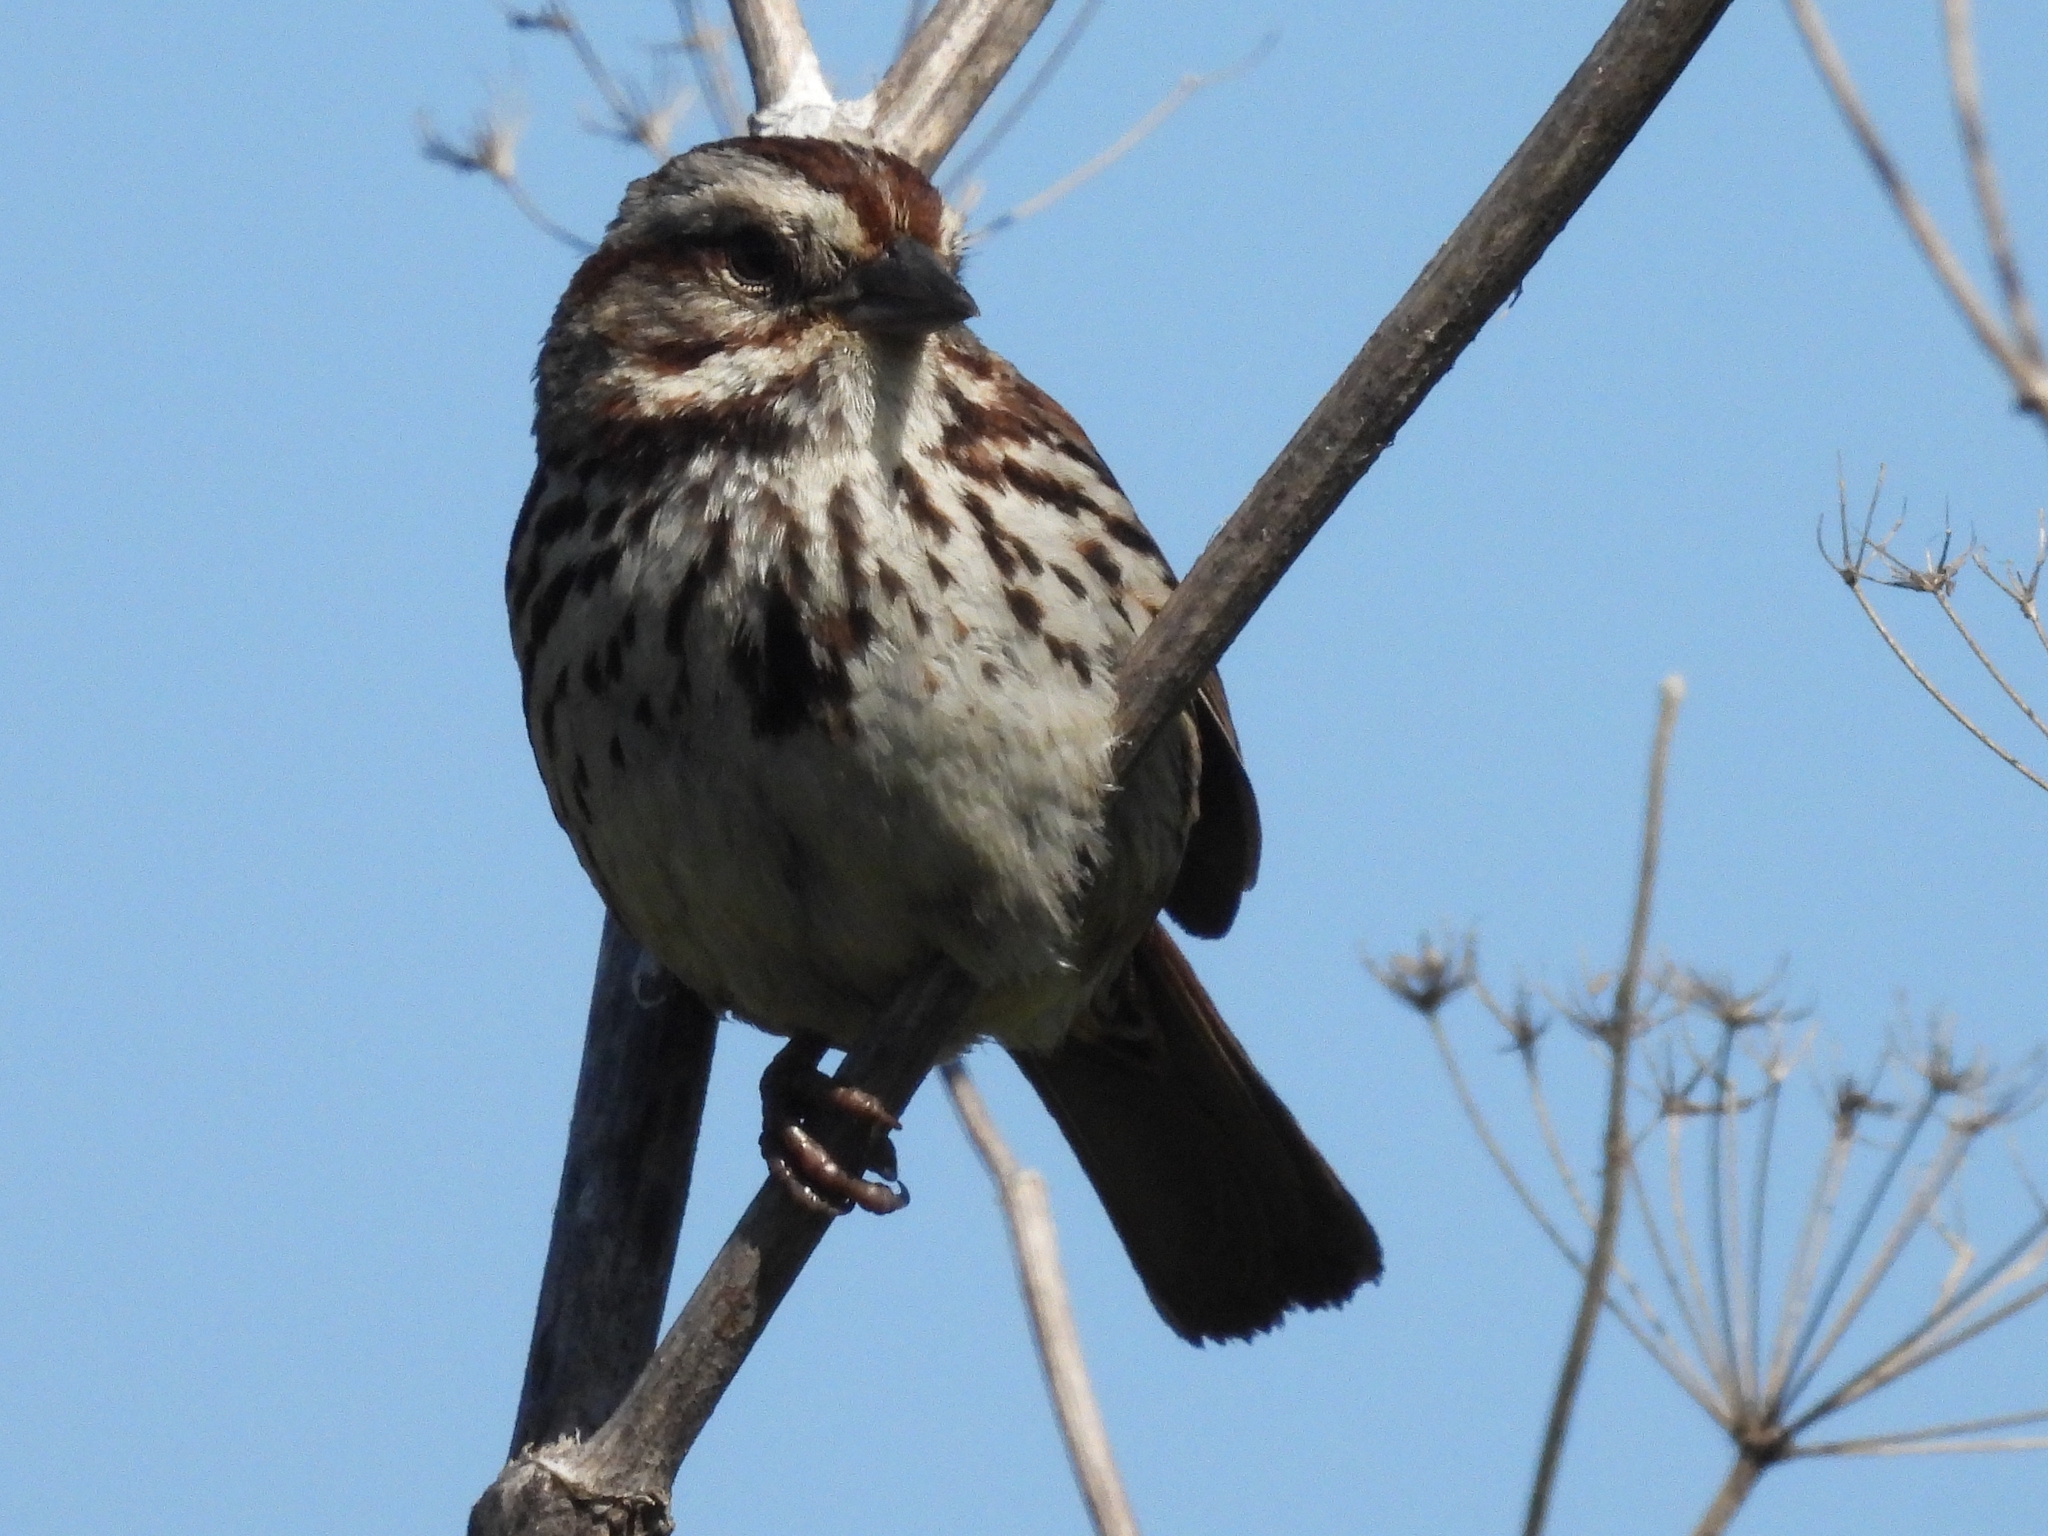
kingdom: Animalia
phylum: Chordata
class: Aves
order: Passeriformes
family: Passerellidae
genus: Melospiza
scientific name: Melospiza melodia
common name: Song sparrow
